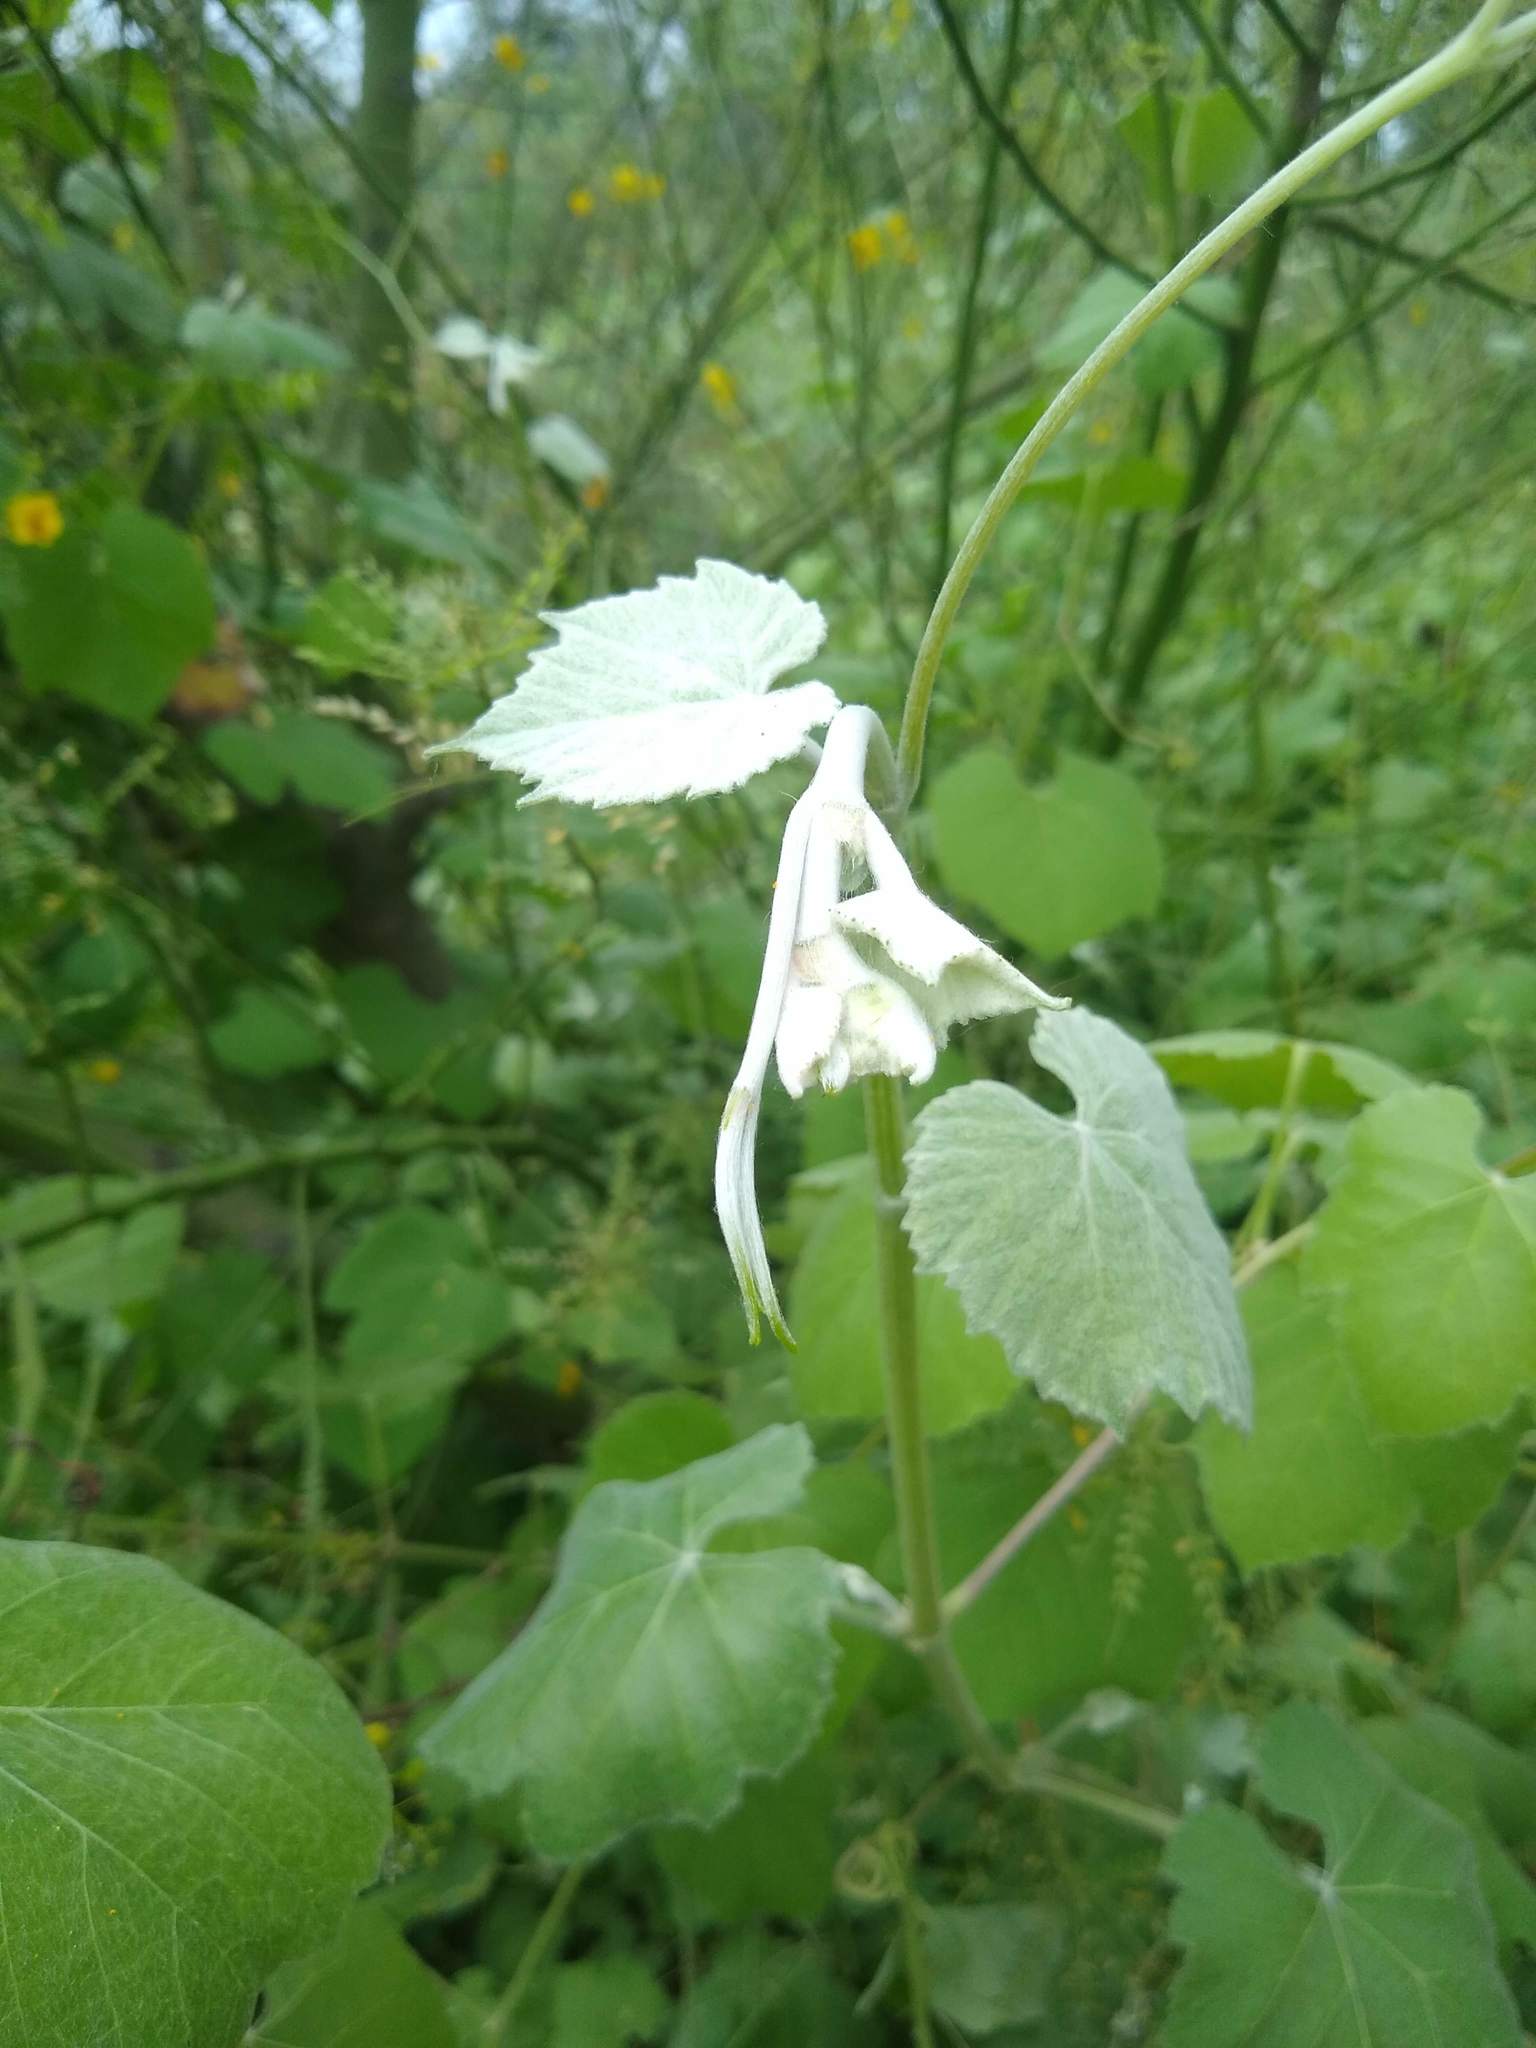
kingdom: Plantae
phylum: Tracheophyta
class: Magnoliopsida
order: Vitales
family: Vitaceae
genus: Vitis
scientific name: Vitis girdiana
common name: Desert wild grape
